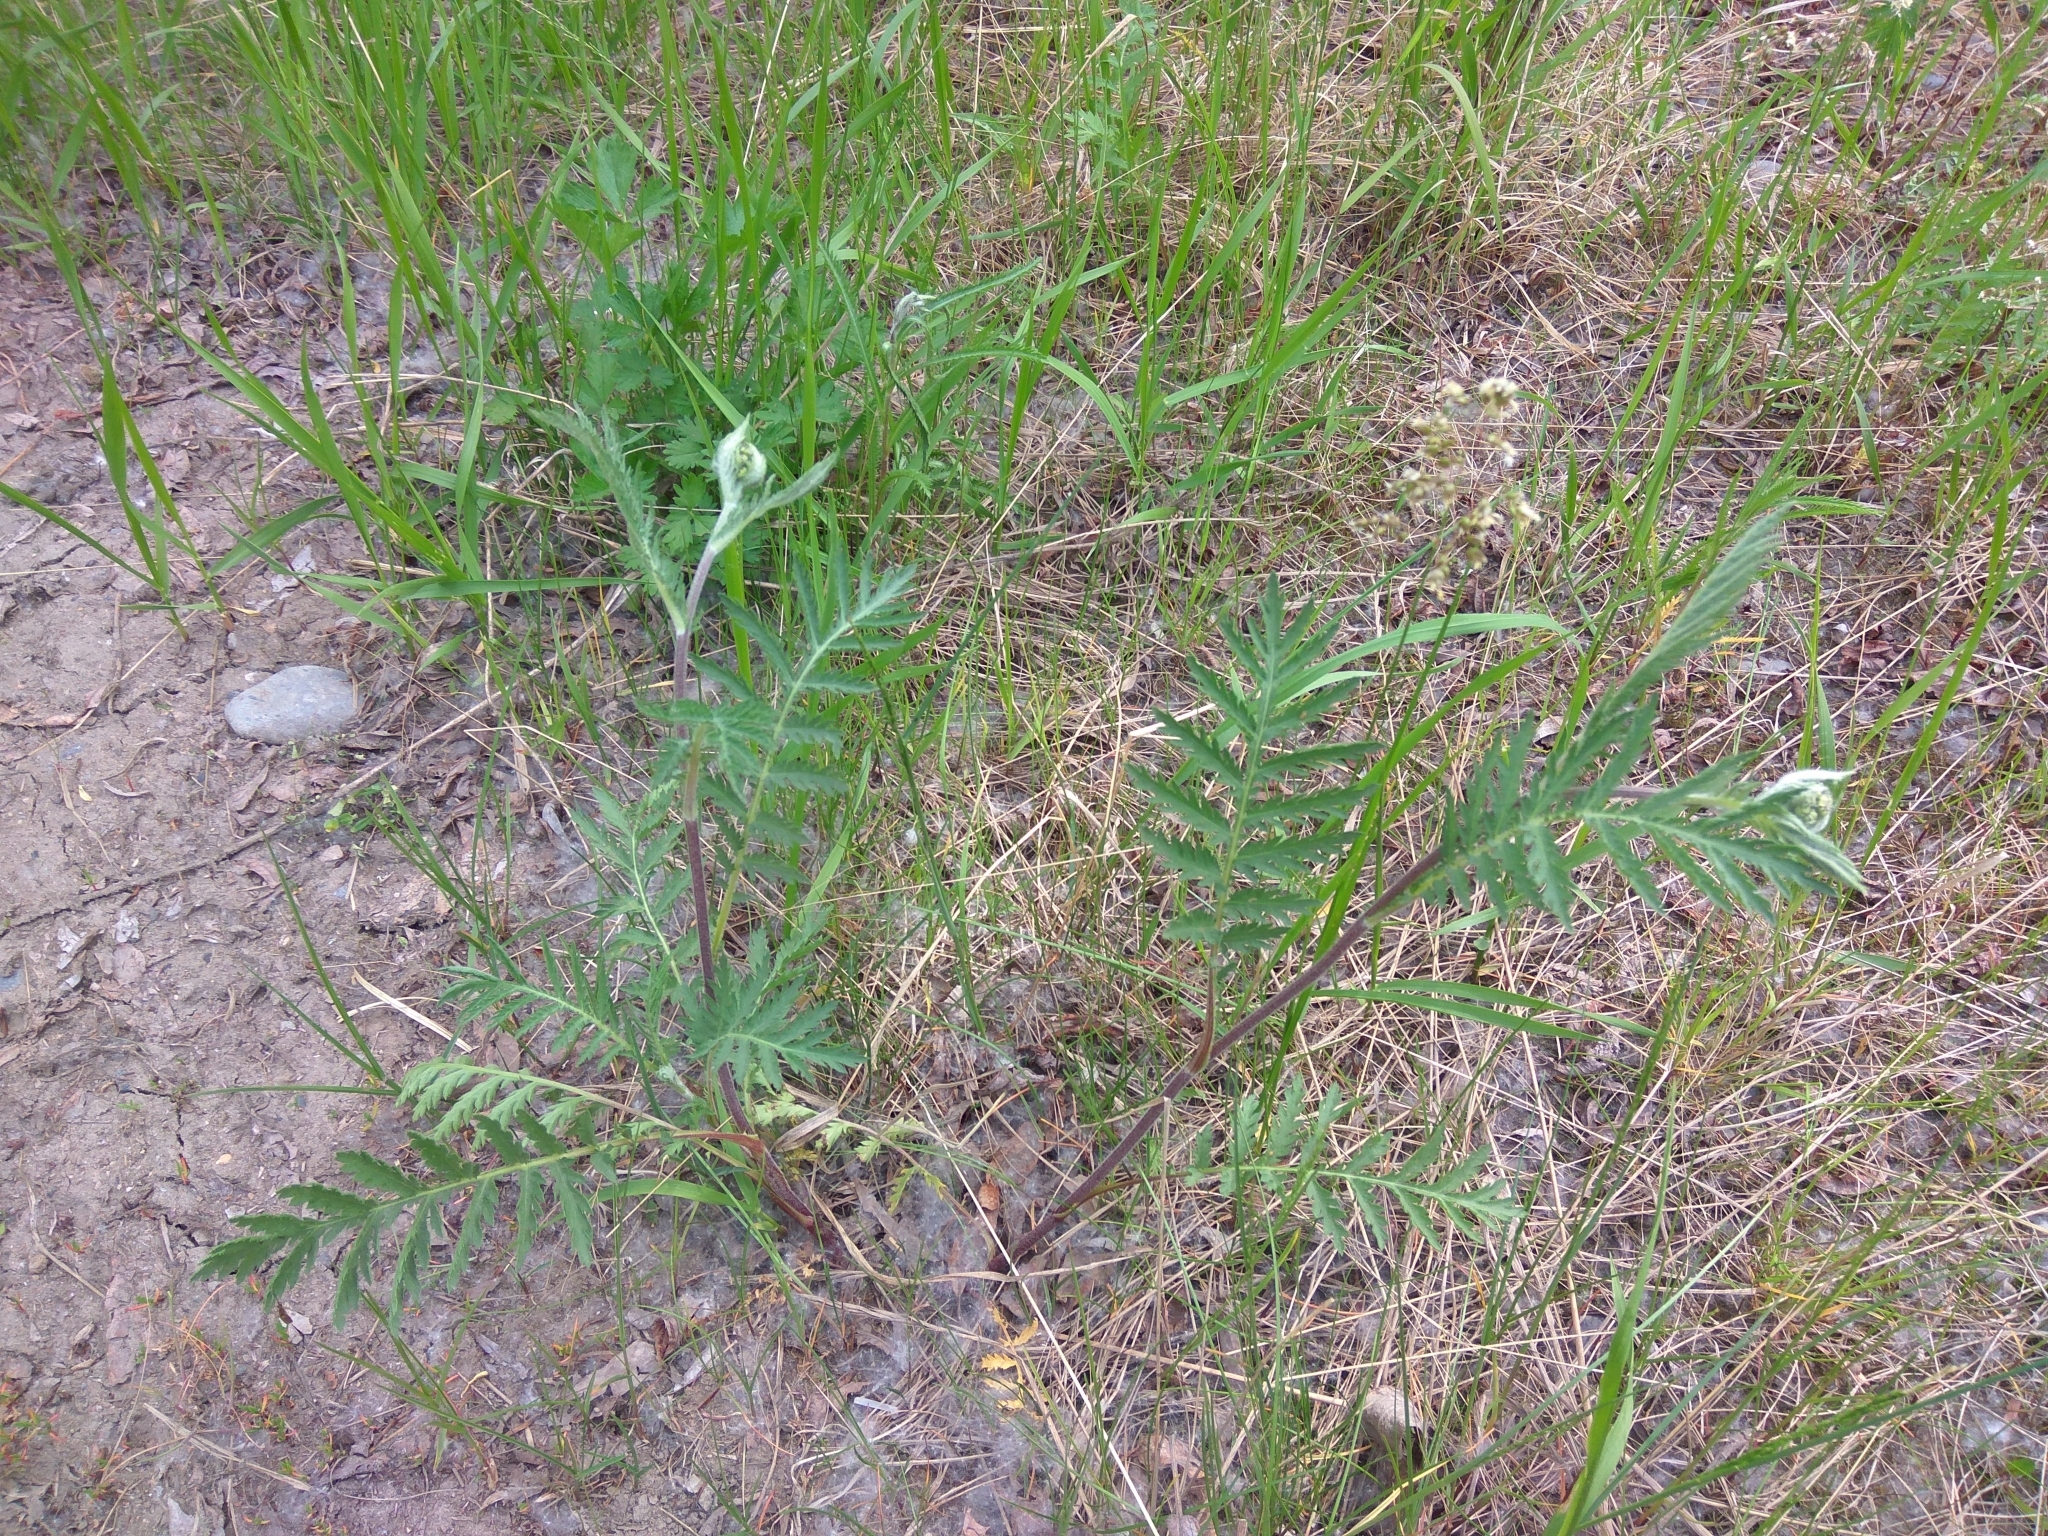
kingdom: Plantae
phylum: Tracheophyta
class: Magnoliopsida
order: Asterales
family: Asteraceae
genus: Tanacetum
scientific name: Tanacetum vulgare
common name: Common tansy
